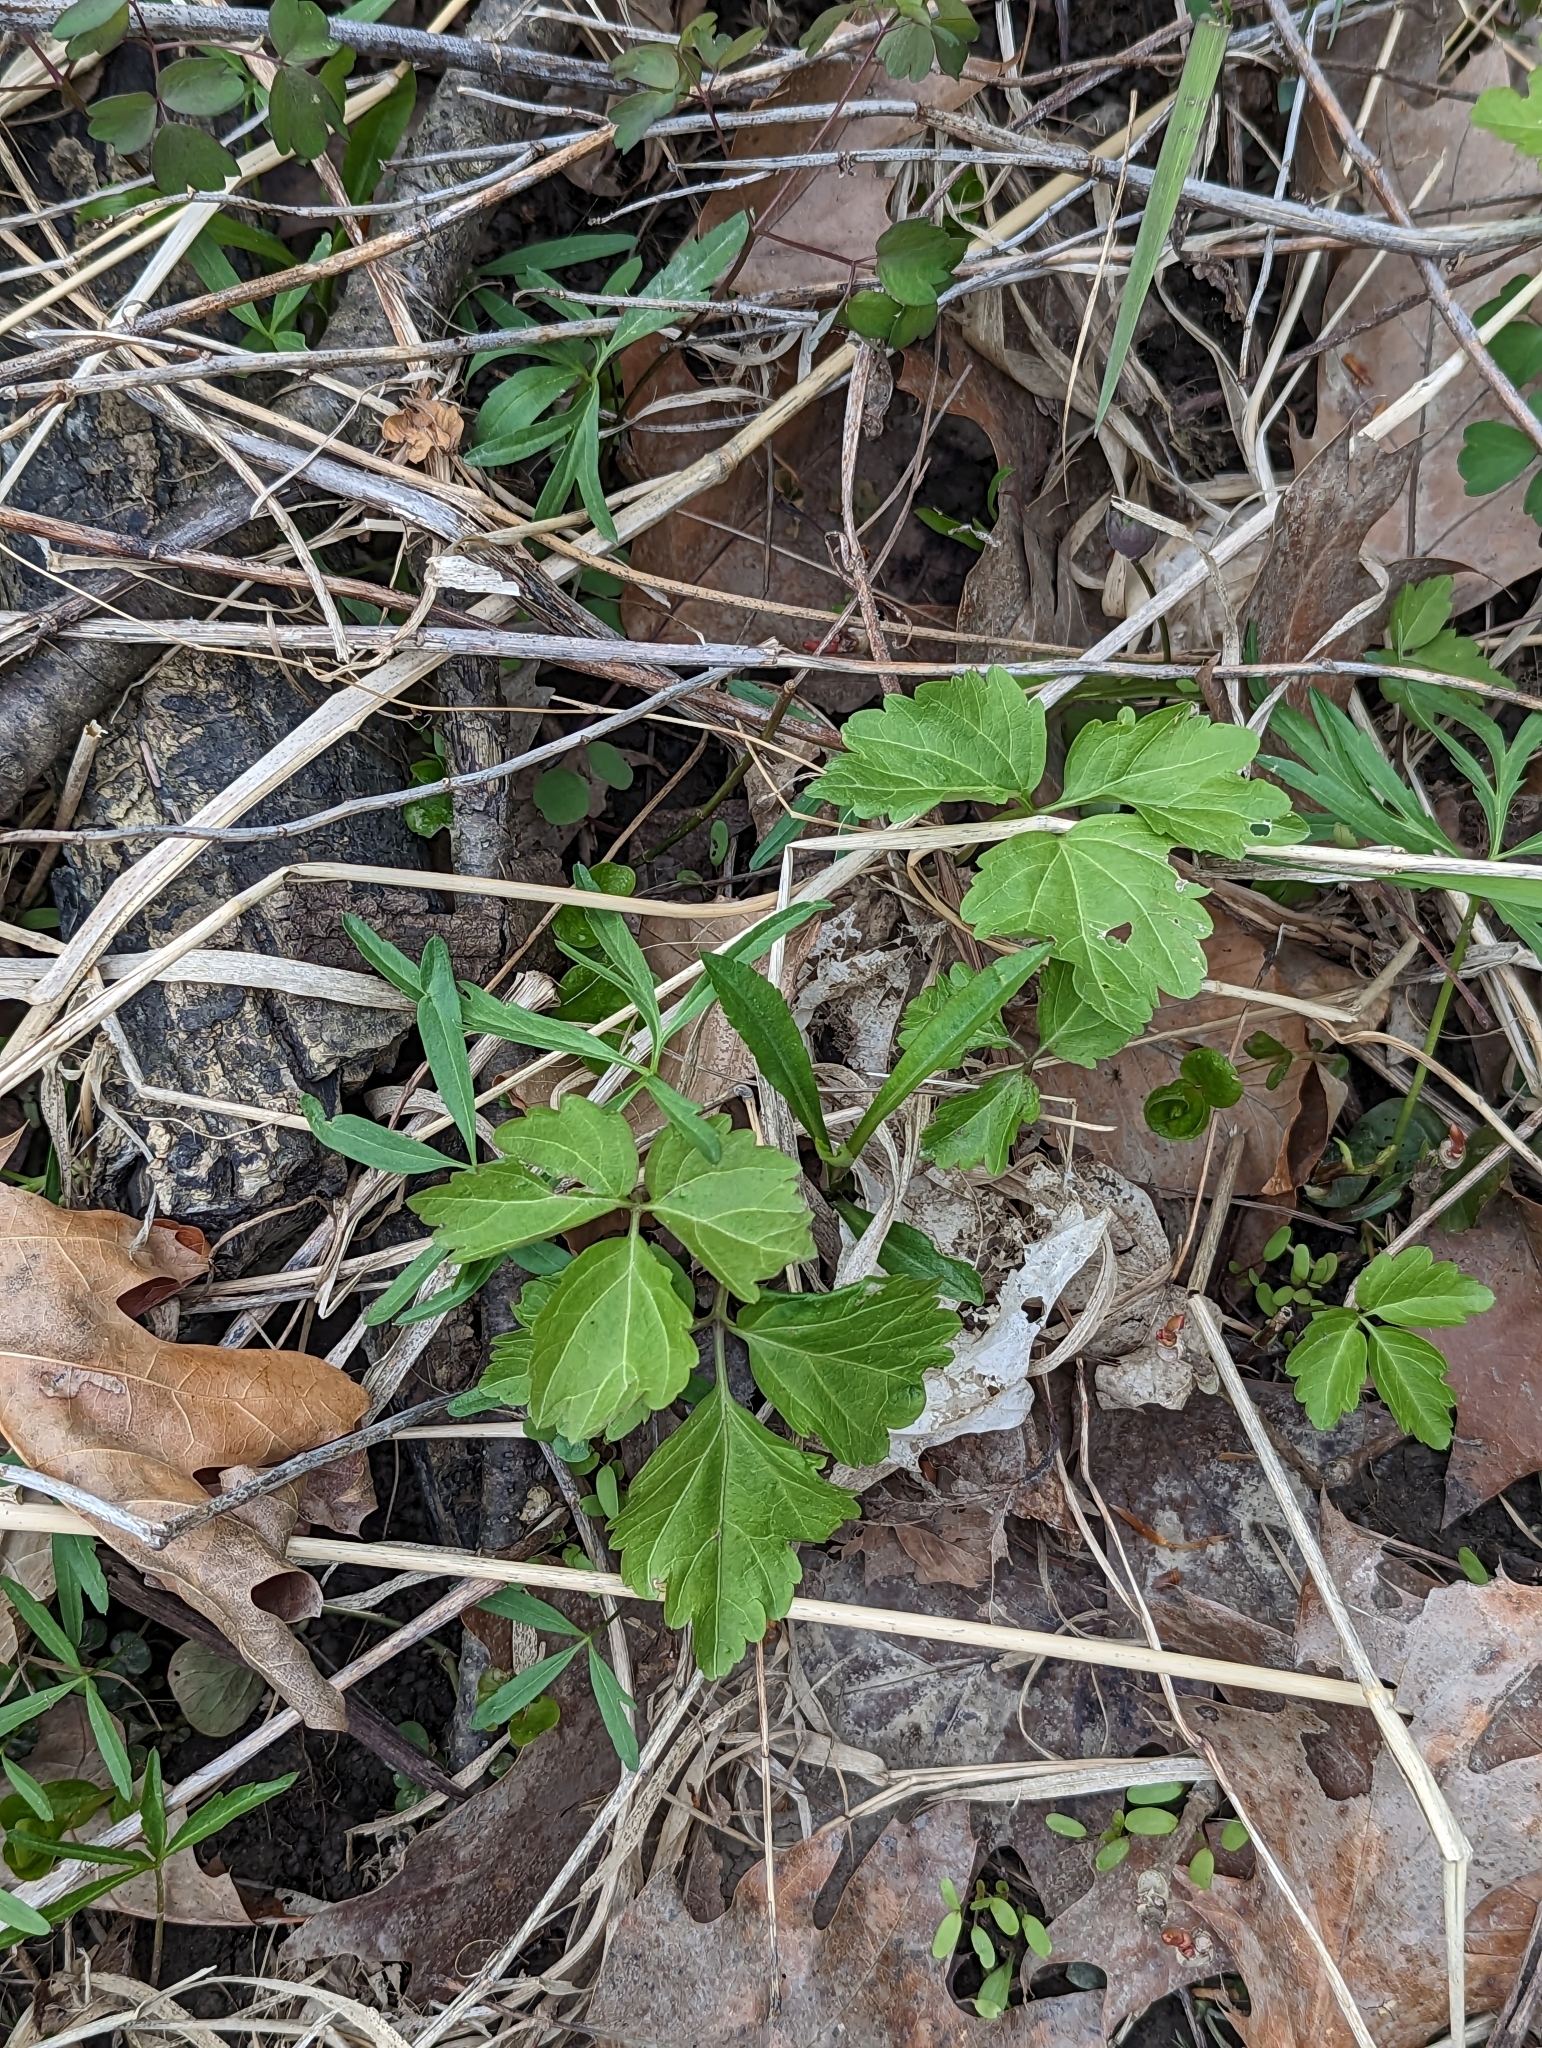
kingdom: Plantae
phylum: Tracheophyta
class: Magnoliopsida
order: Brassicales
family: Brassicaceae
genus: Cardamine
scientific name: Cardamine diphylla
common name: Broad-leaved toothwort
